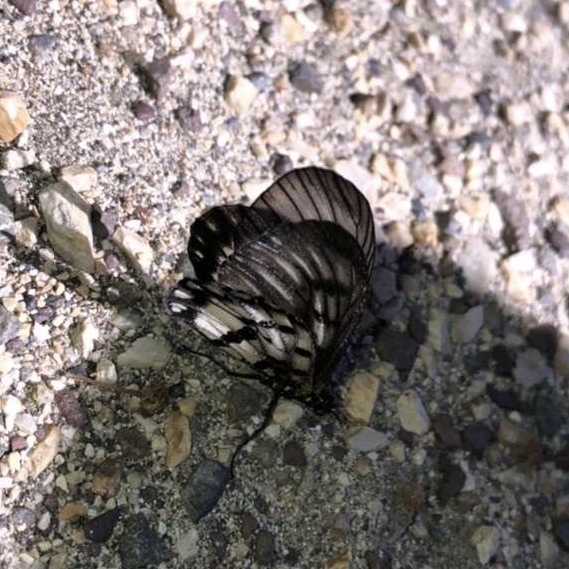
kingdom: Animalia
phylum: Arthropoda
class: Insecta
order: Lepidoptera
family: Nymphalidae
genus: Acraea
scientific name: Acraea andromacha
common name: Glasswing
